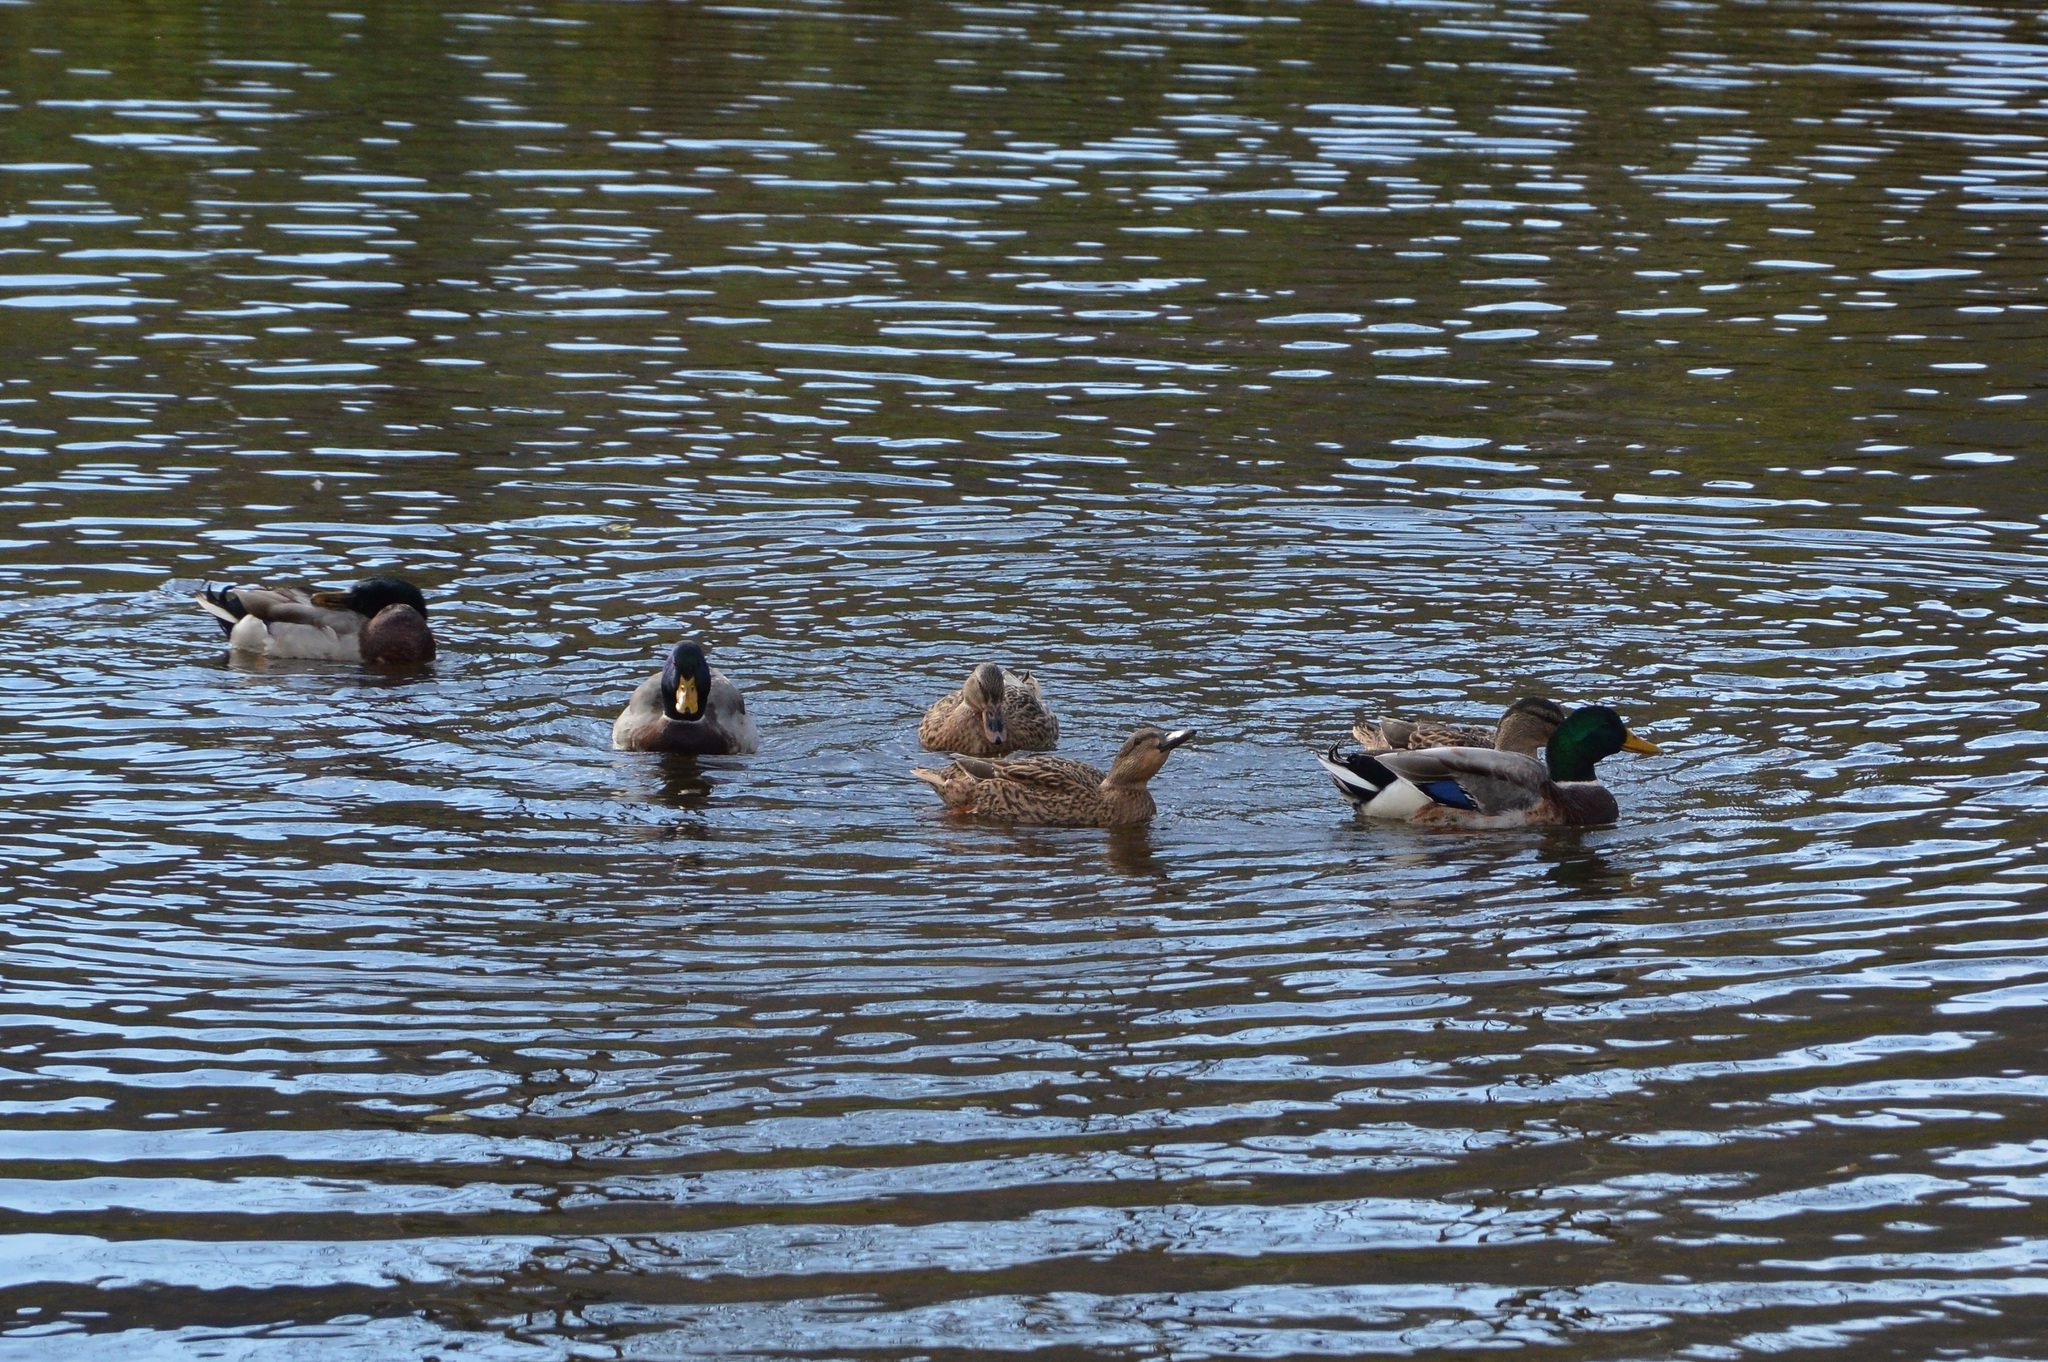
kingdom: Animalia
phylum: Chordata
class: Aves
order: Anseriformes
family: Anatidae
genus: Anas
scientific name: Anas platyrhynchos
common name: Mallard
